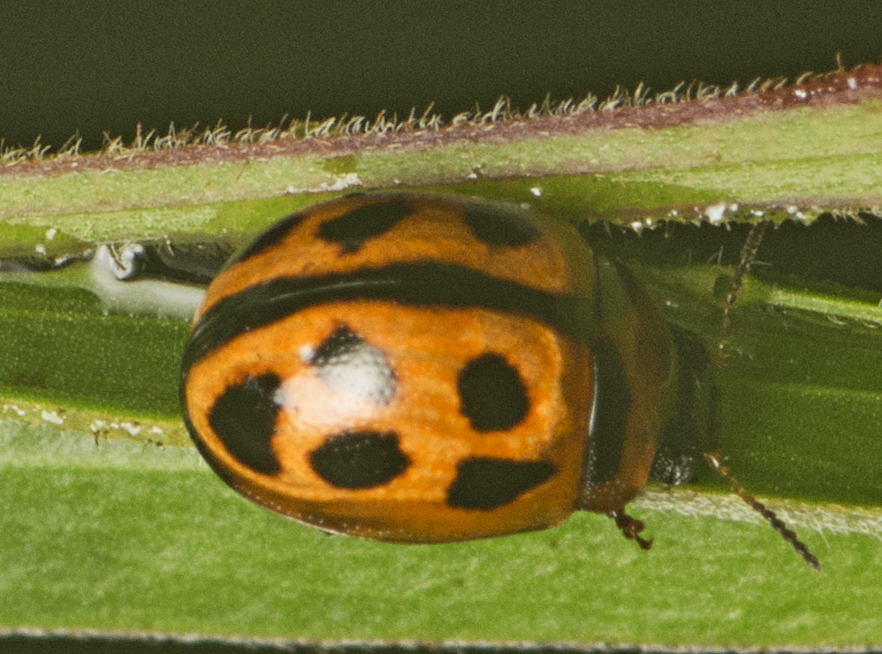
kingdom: Animalia
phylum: Arthropoda
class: Insecta
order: Coleoptera
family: Chrysomelidae
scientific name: Chrysomelidae
